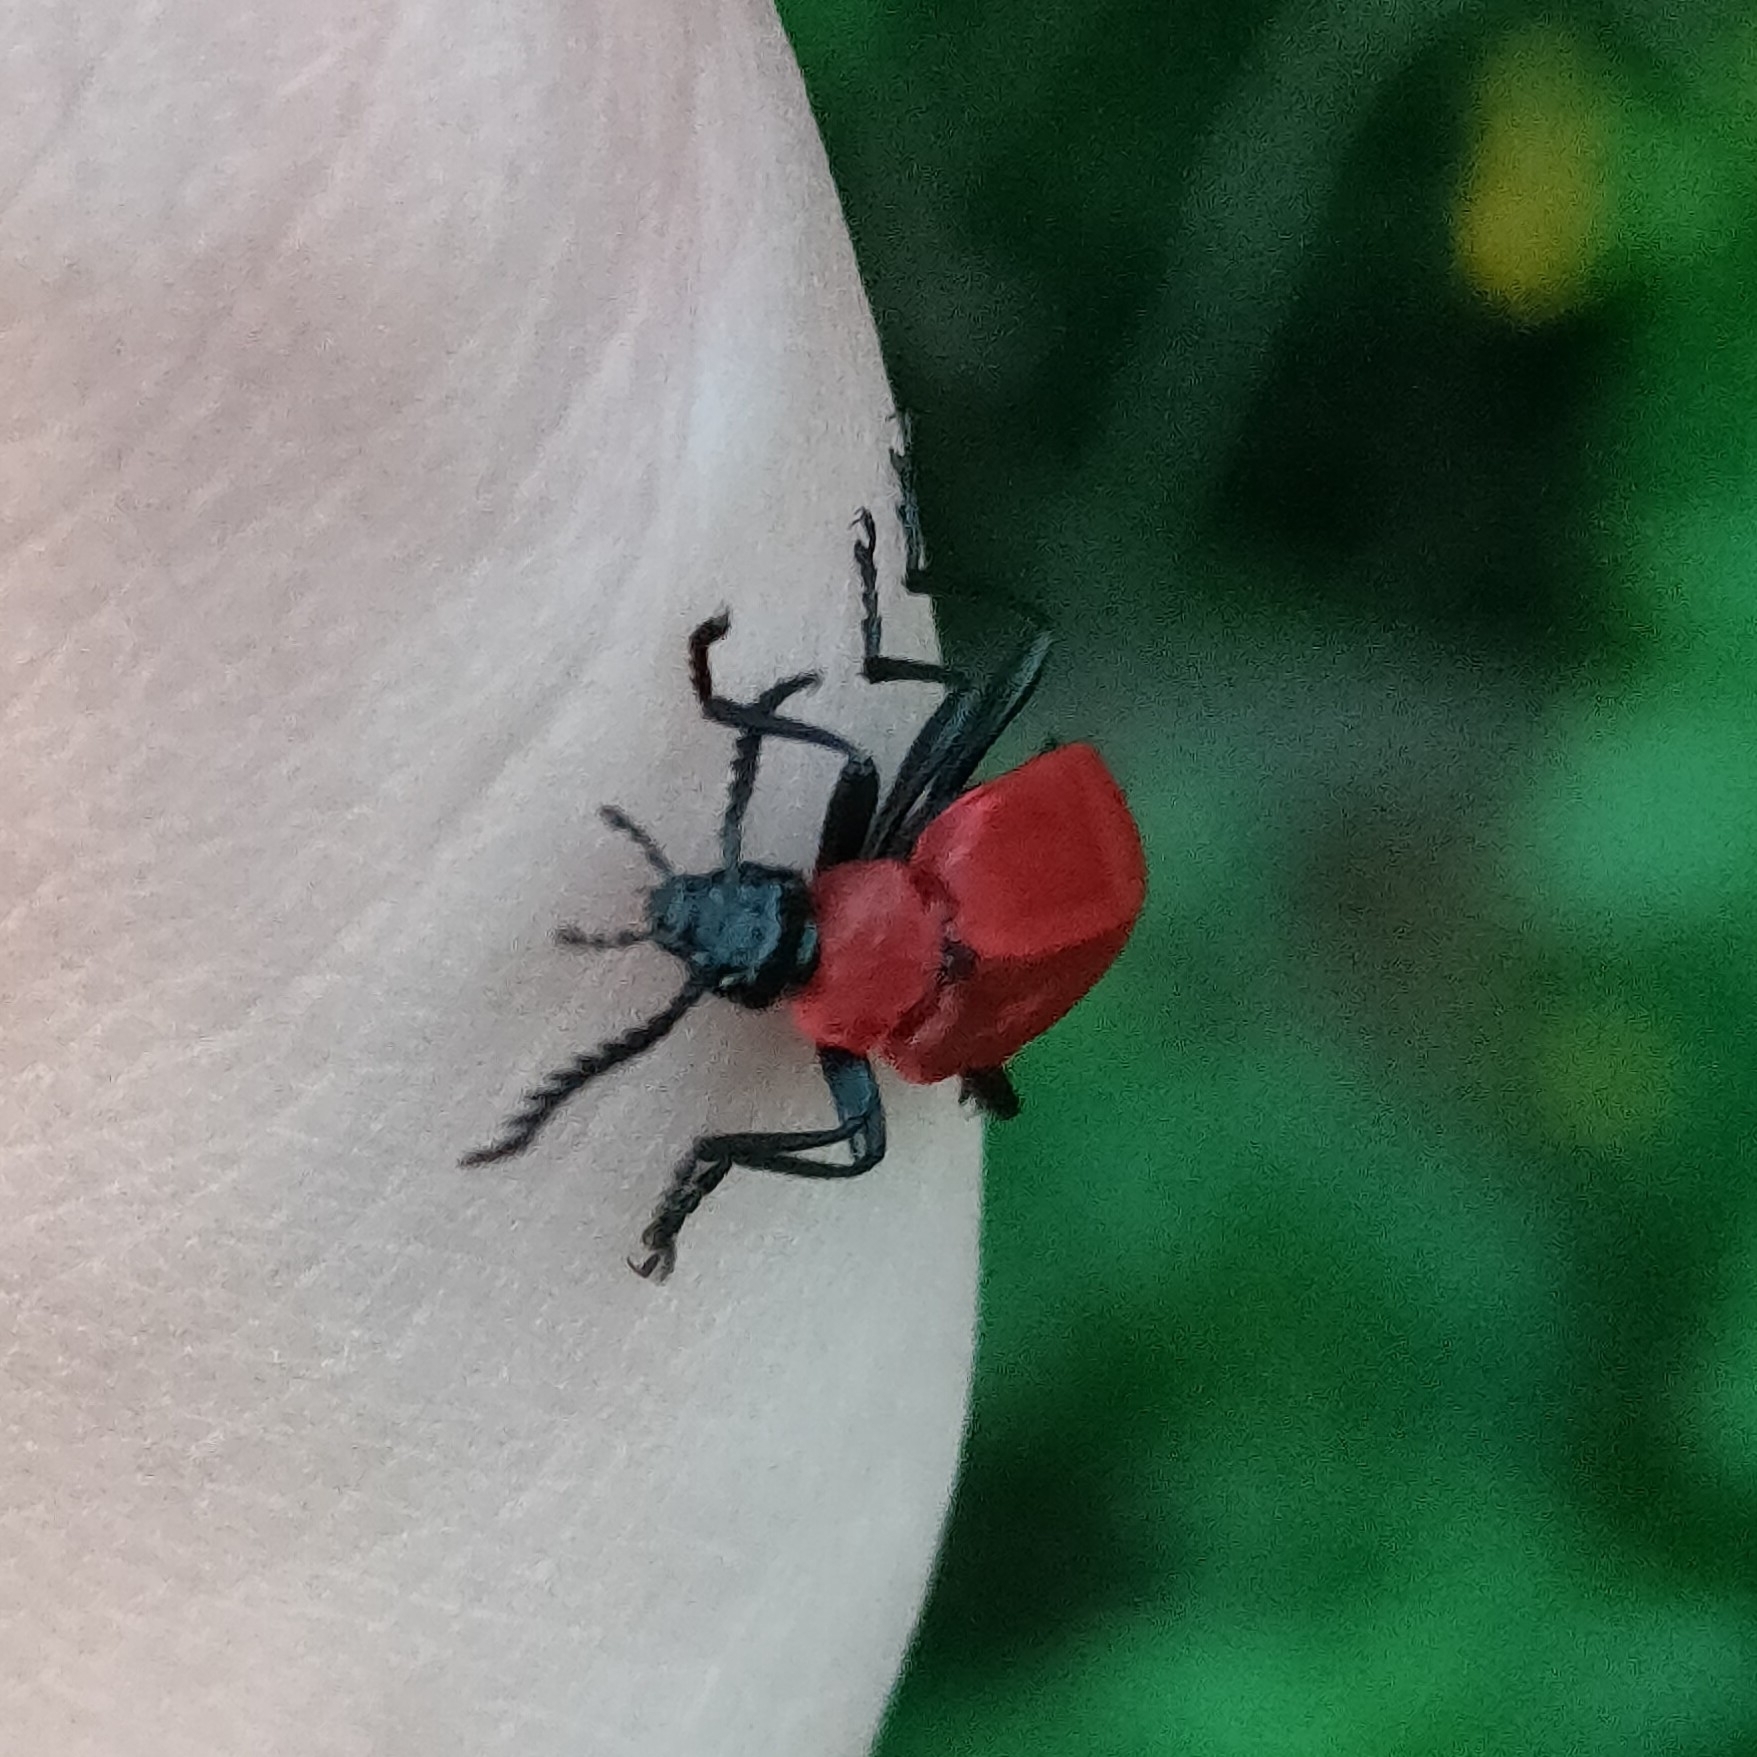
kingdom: Animalia
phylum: Arthropoda
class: Insecta
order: Coleoptera
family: Pyrochroidae
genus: Pyrochroa
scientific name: Pyrochroa coccinea
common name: Black-headed cardinal beetle
